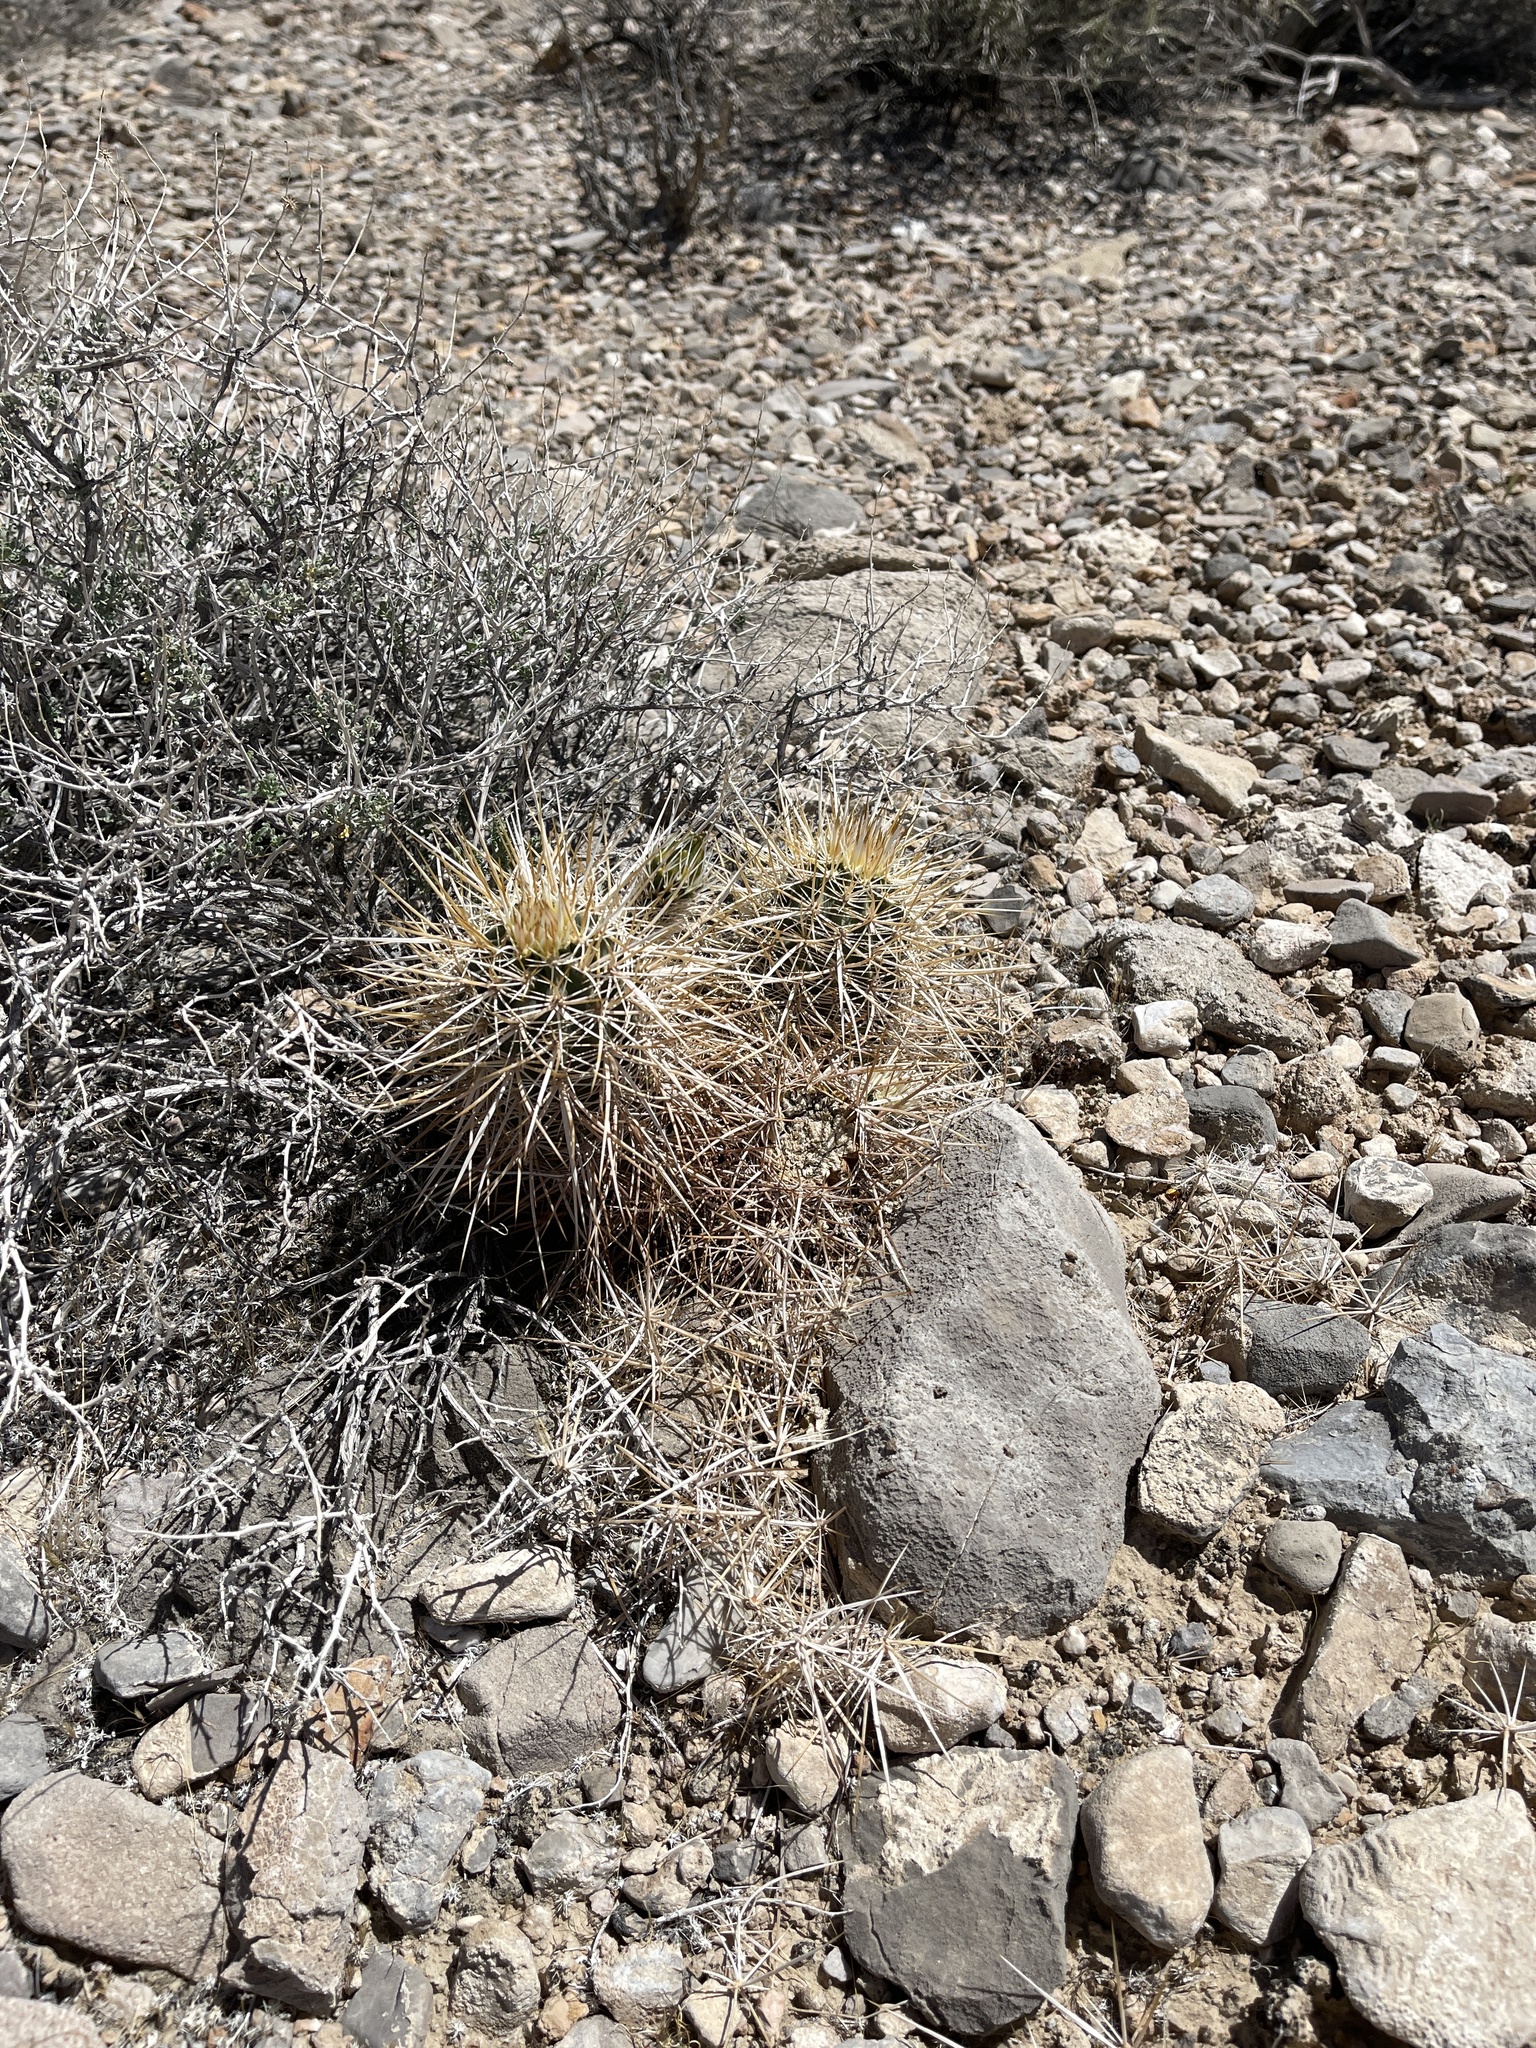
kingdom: Plantae
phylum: Tracheophyta
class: Magnoliopsida
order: Caryophyllales
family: Cactaceae
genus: Echinocereus
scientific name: Echinocereus engelmannii
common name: Engelmann's hedgehog cactus
